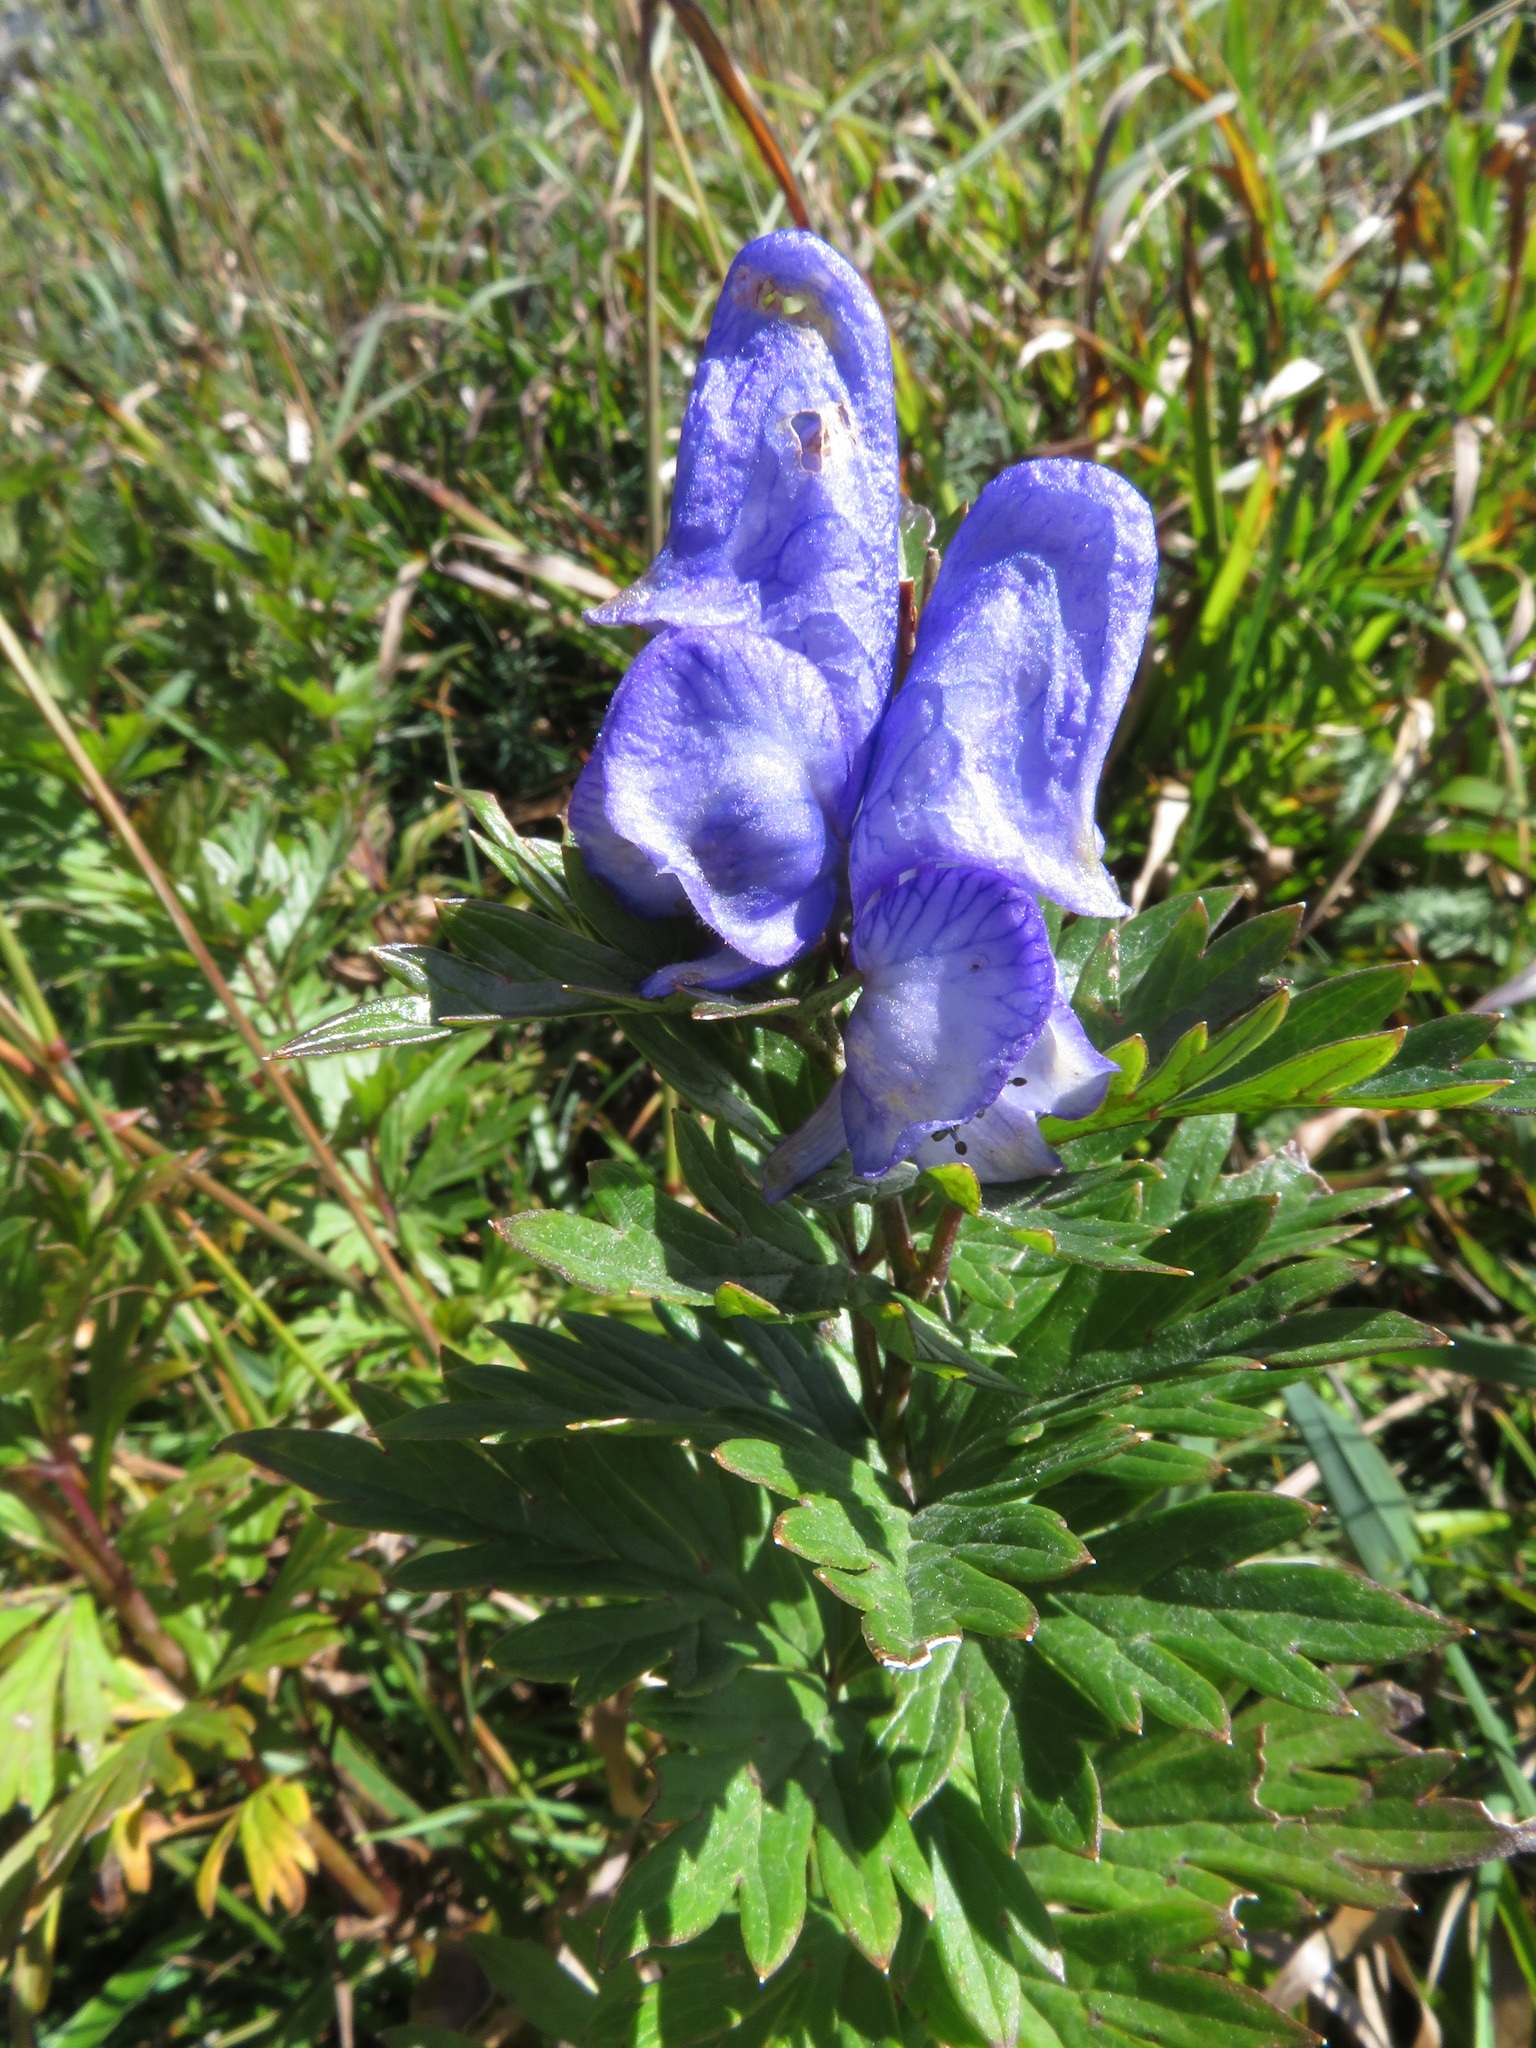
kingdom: Plantae
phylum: Tracheophyta
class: Magnoliopsida
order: Ranunculales
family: Ranunculaceae
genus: Aconitum
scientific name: Aconitum variegatum
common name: Manchurian monkshood
